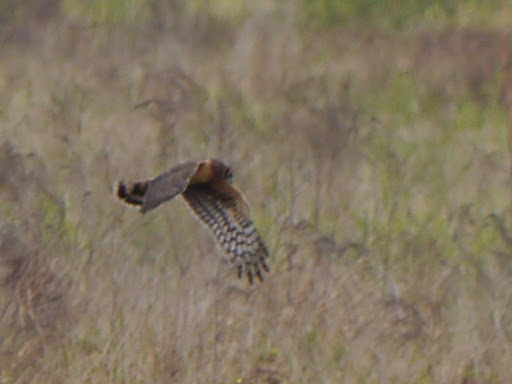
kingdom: Animalia
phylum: Chordata
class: Aves
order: Accipitriformes
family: Accipitridae
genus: Circus
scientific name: Circus cyaneus
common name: Hen harrier
